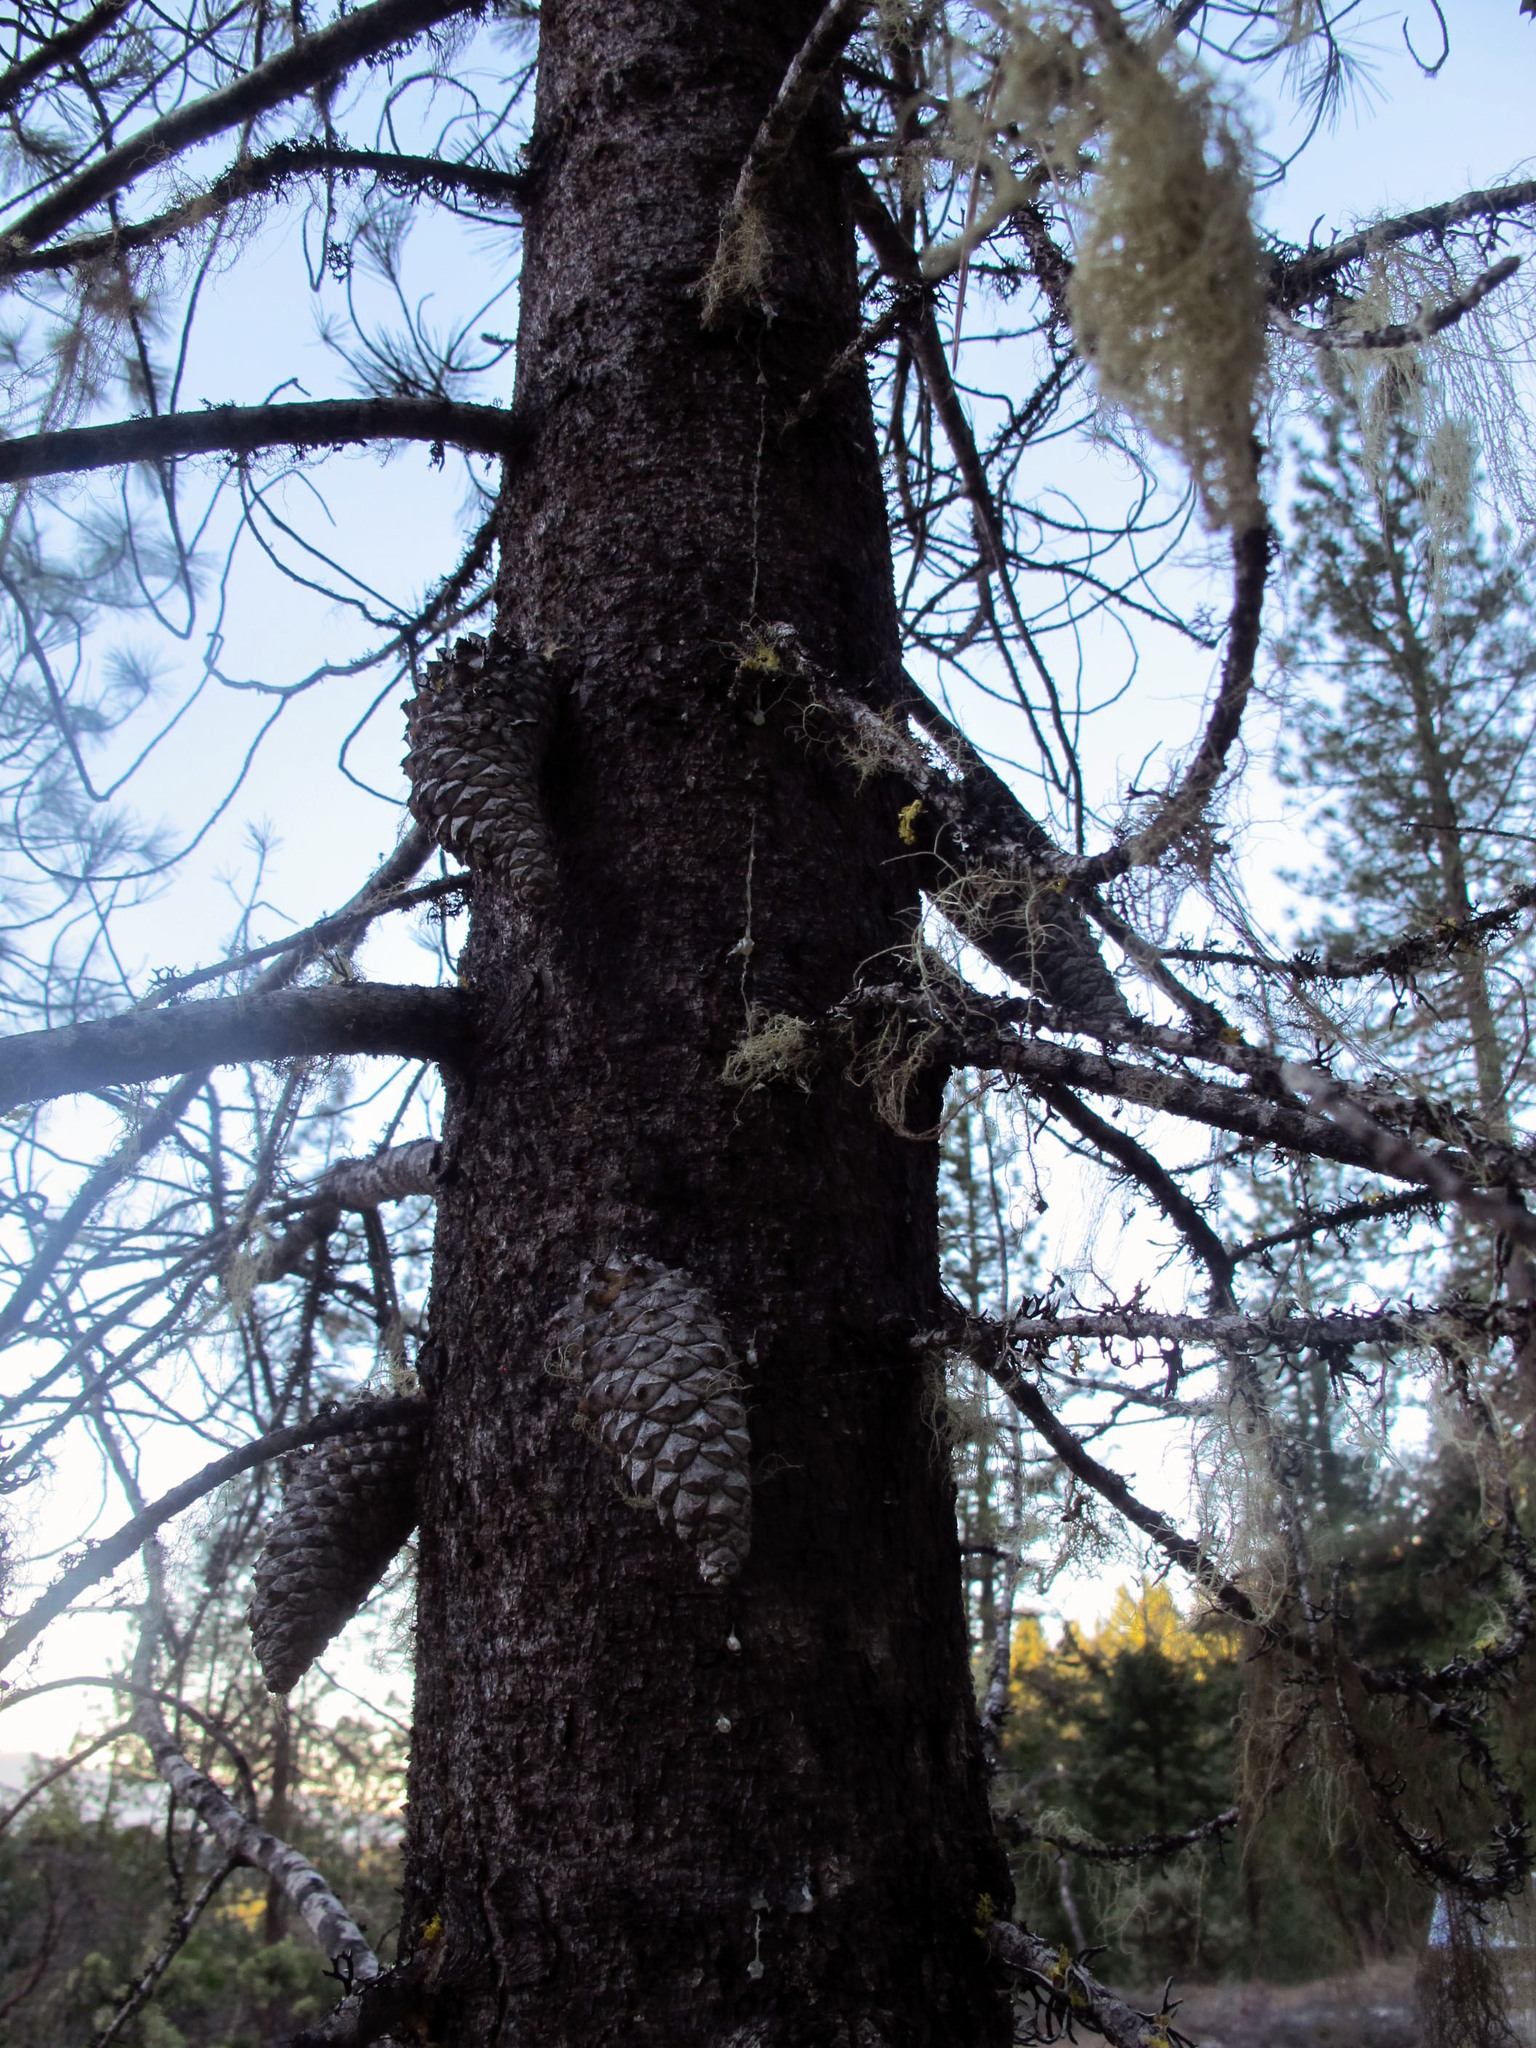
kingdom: Plantae
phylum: Tracheophyta
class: Pinopsida
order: Pinales
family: Pinaceae
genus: Pinus
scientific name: Pinus attenuata
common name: Knobcone pine
